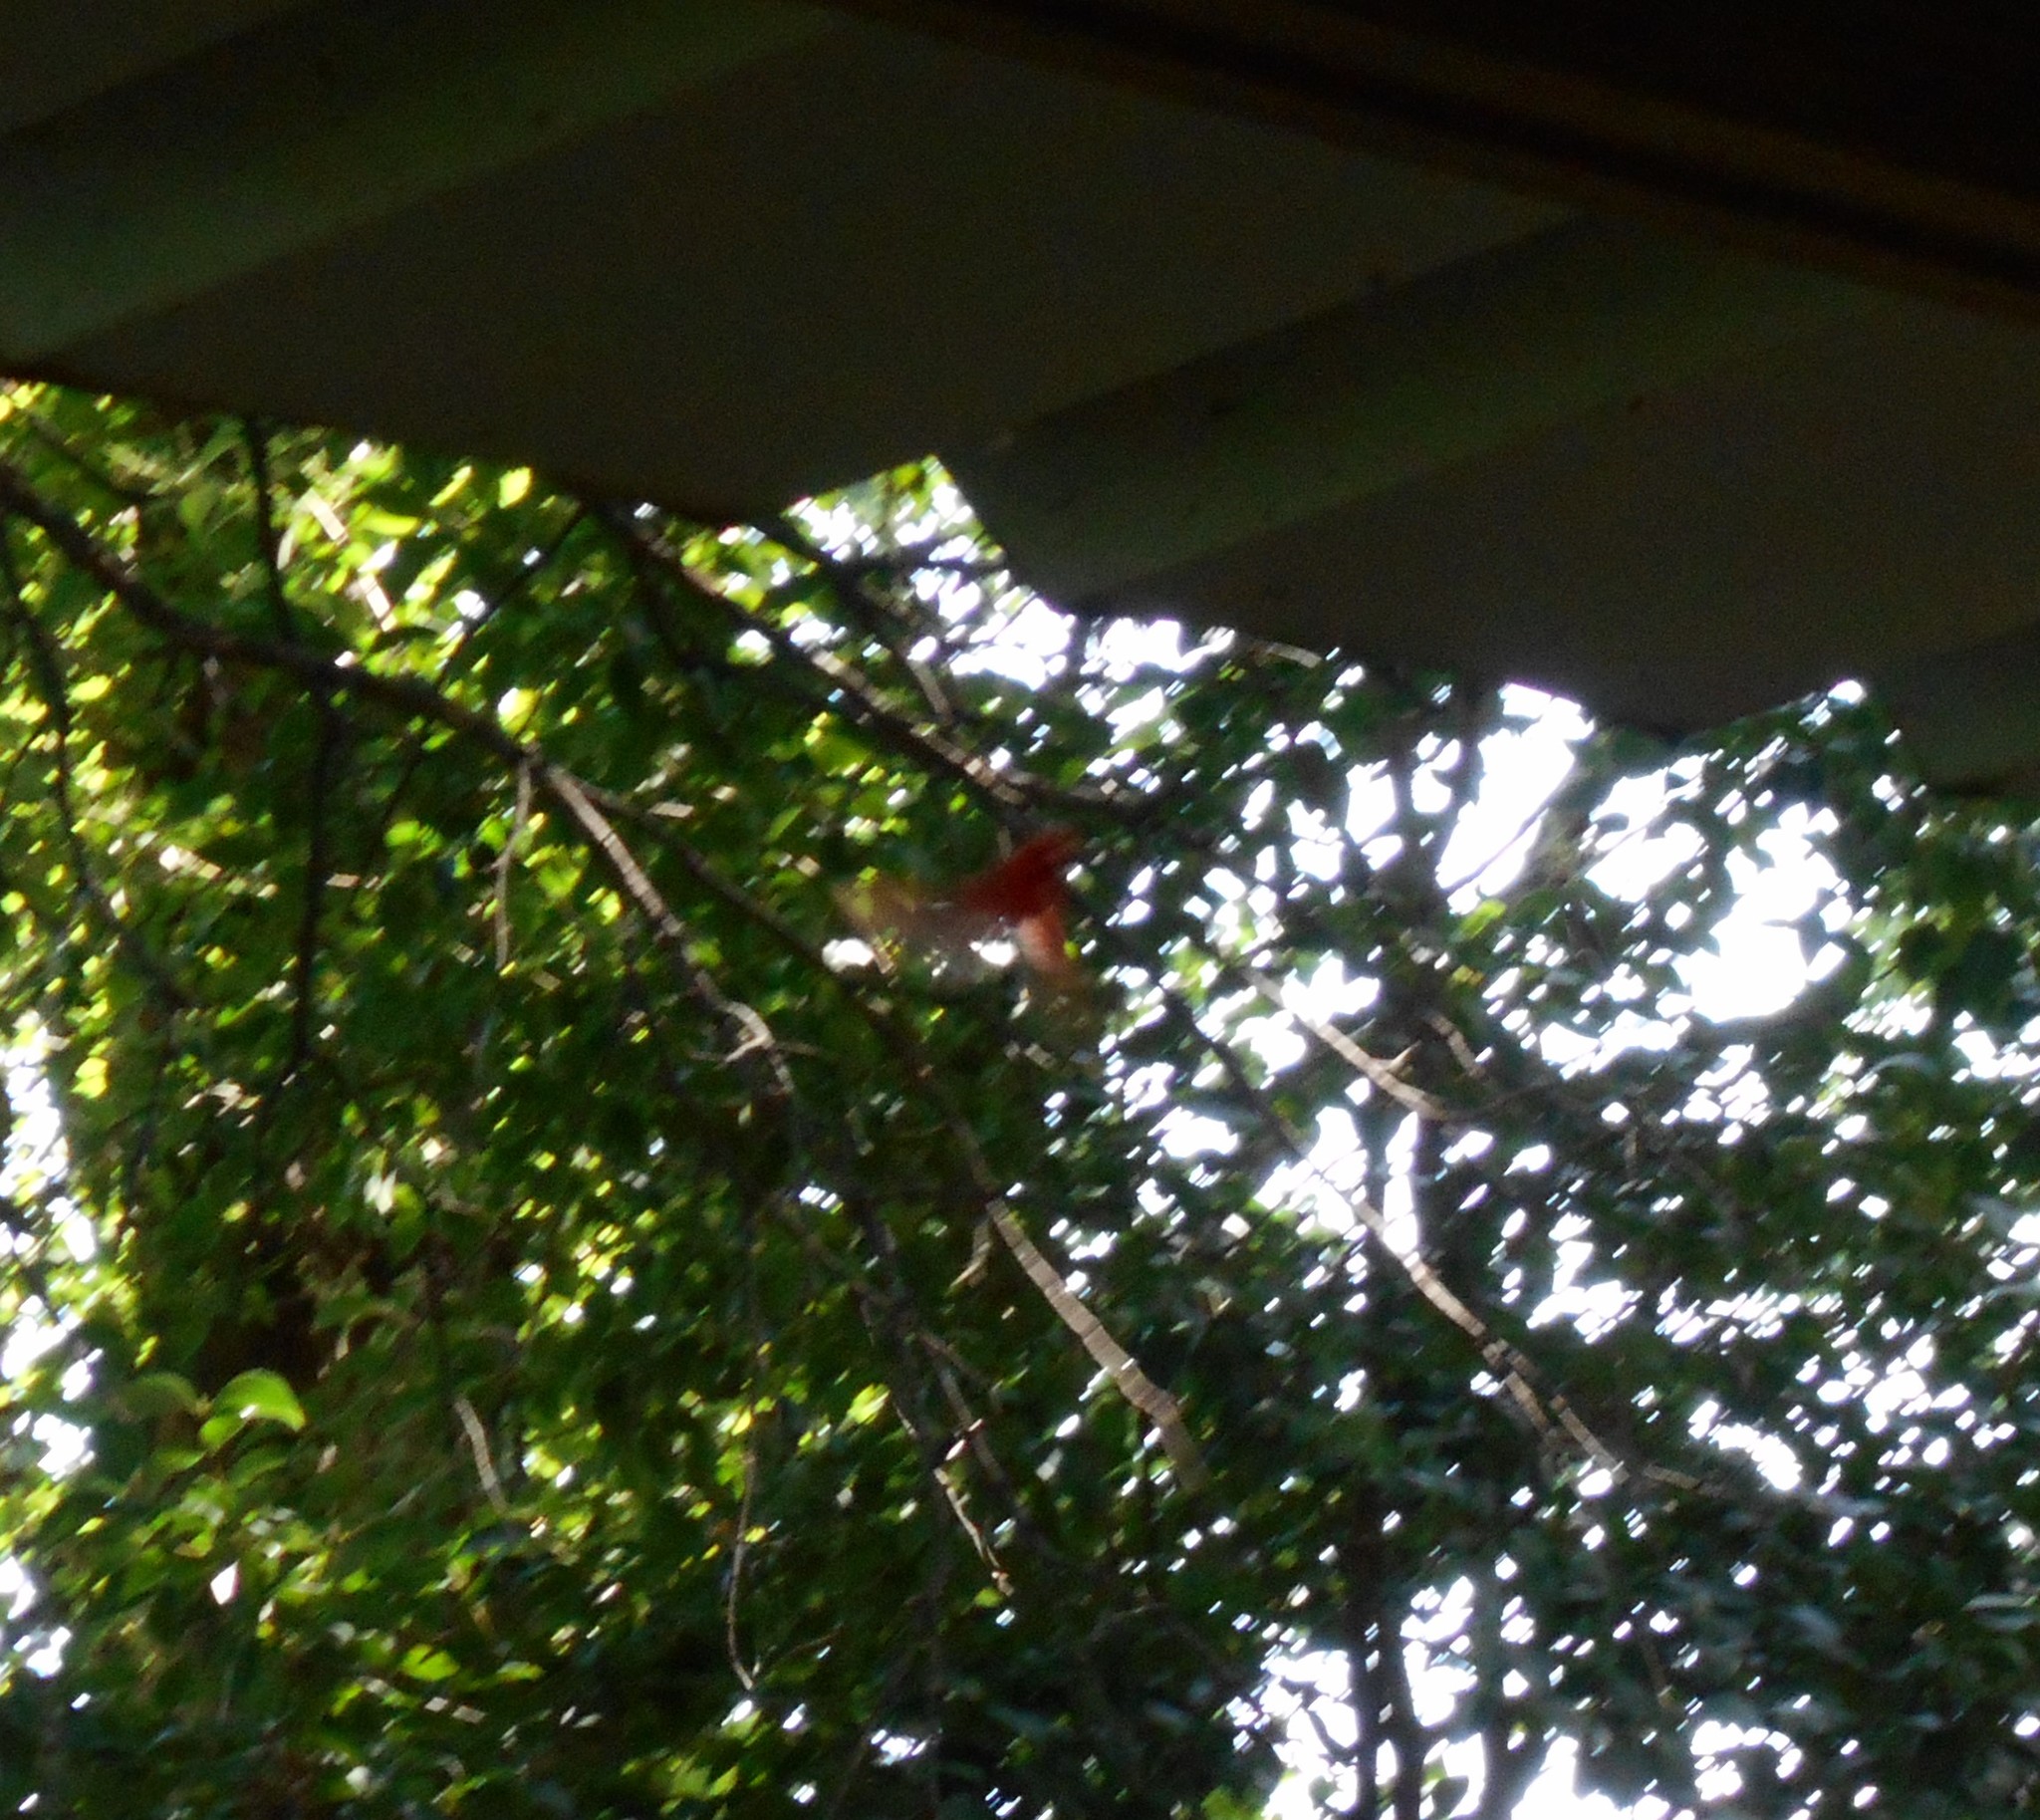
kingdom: Animalia
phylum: Chordata
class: Aves
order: Passeriformes
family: Cardinalidae
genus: Cardinalis
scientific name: Cardinalis cardinalis
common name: Northern cardinal
